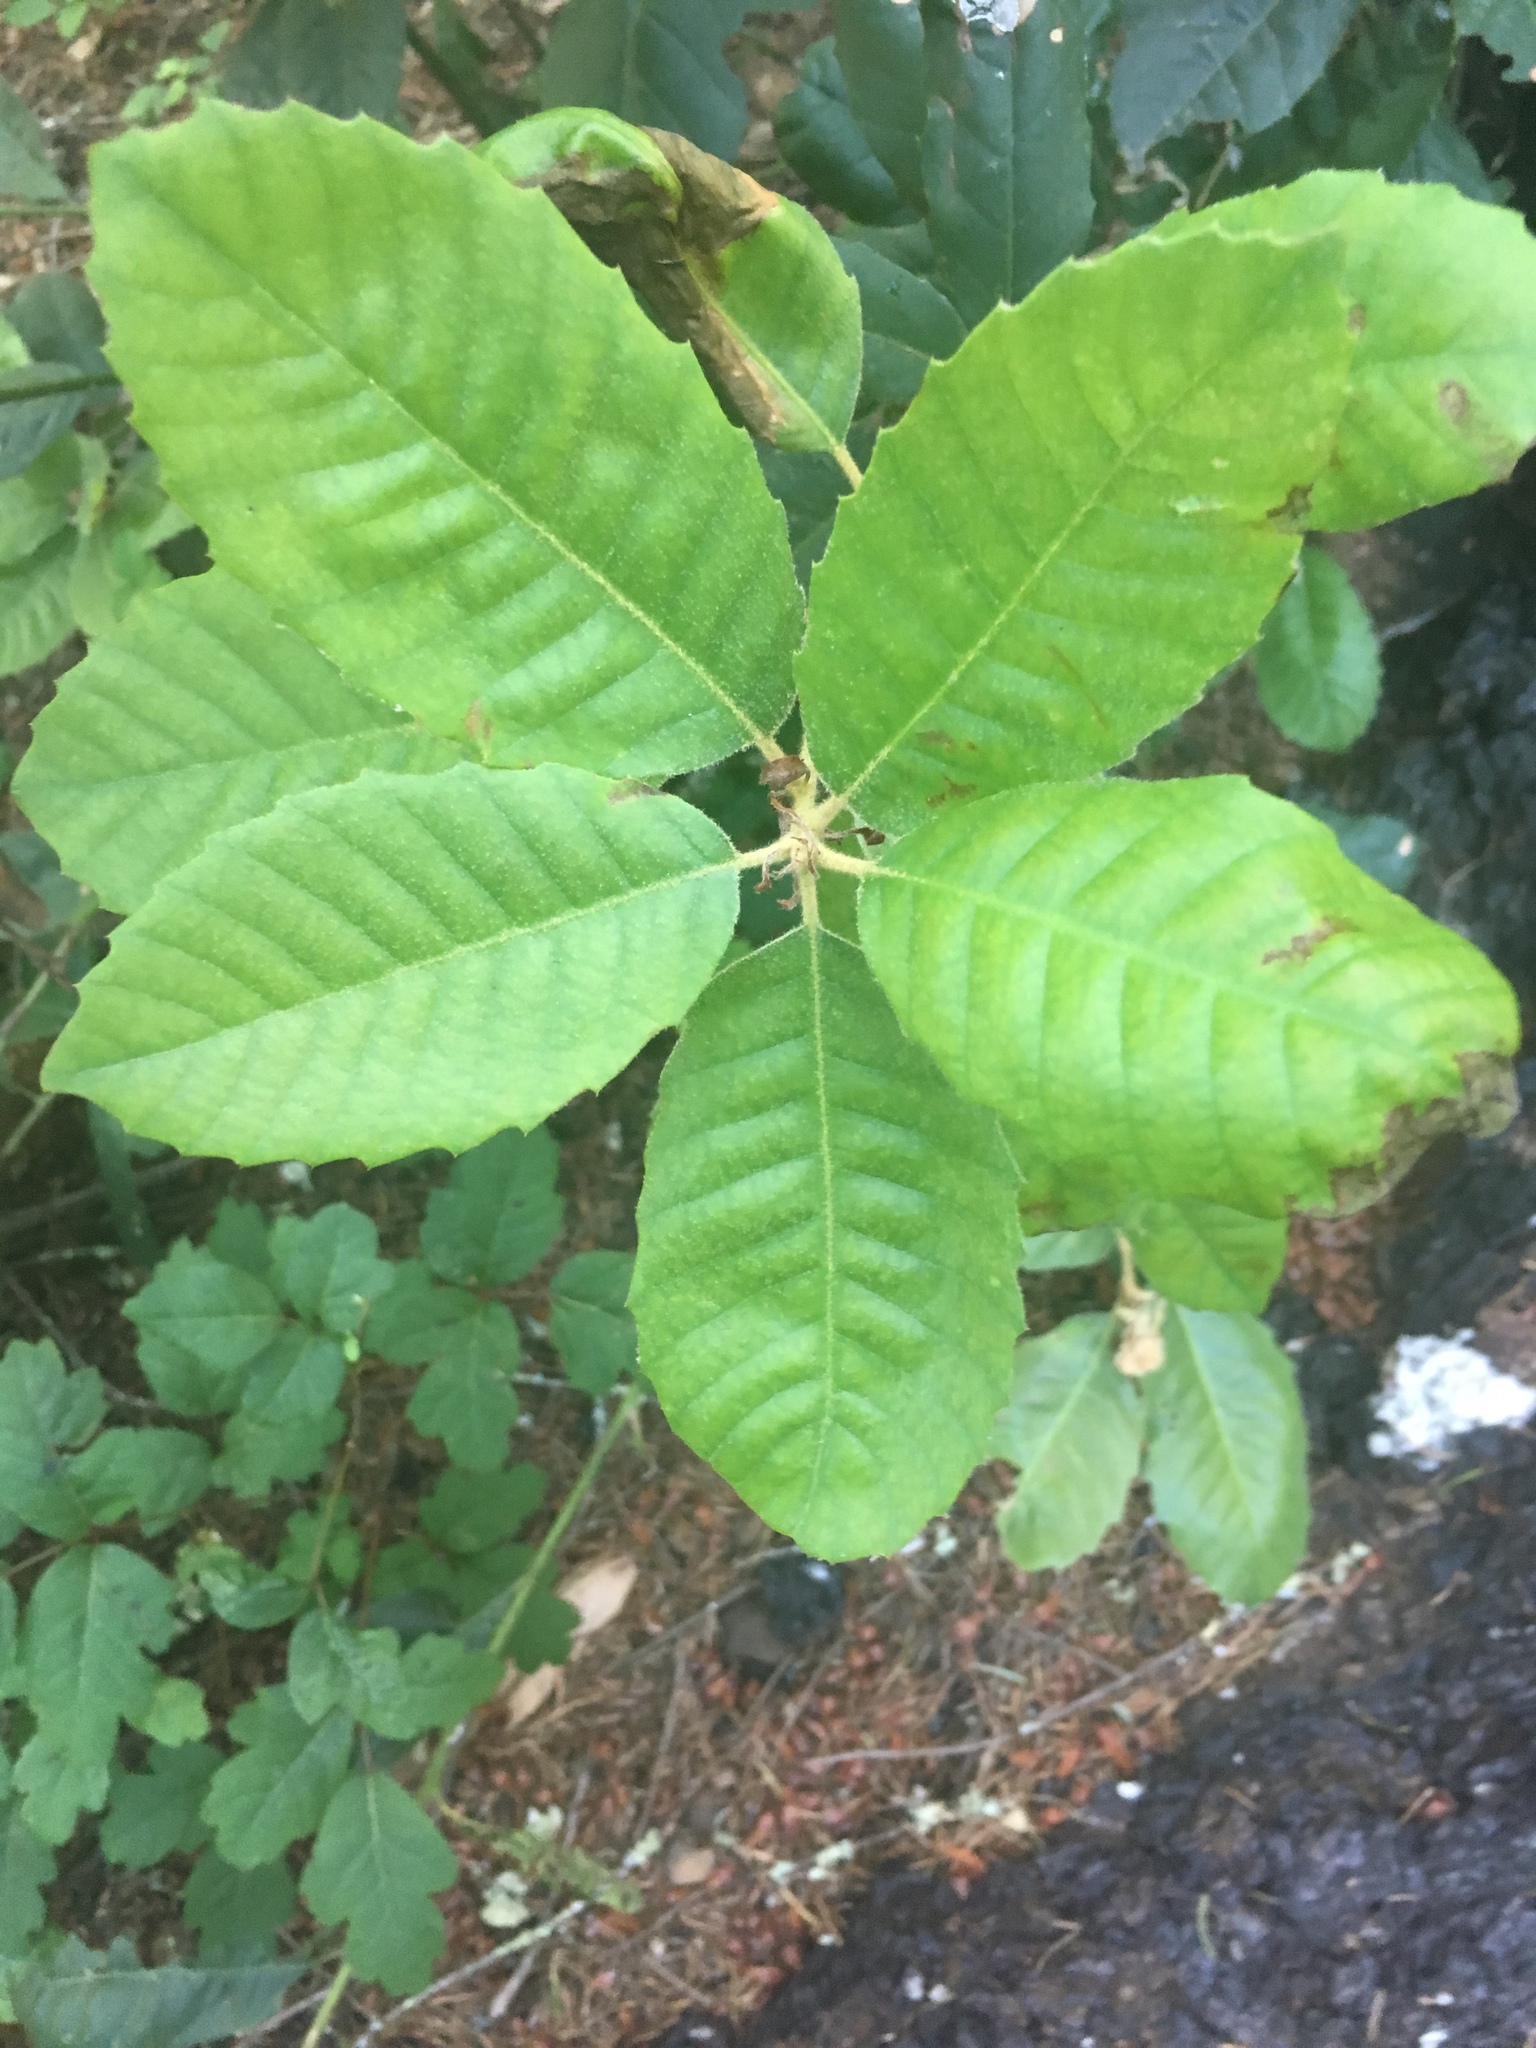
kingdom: Plantae
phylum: Tracheophyta
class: Magnoliopsida
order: Fagales
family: Fagaceae
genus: Notholithocarpus
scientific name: Notholithocarpus densiflorus
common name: Tan bark oak
